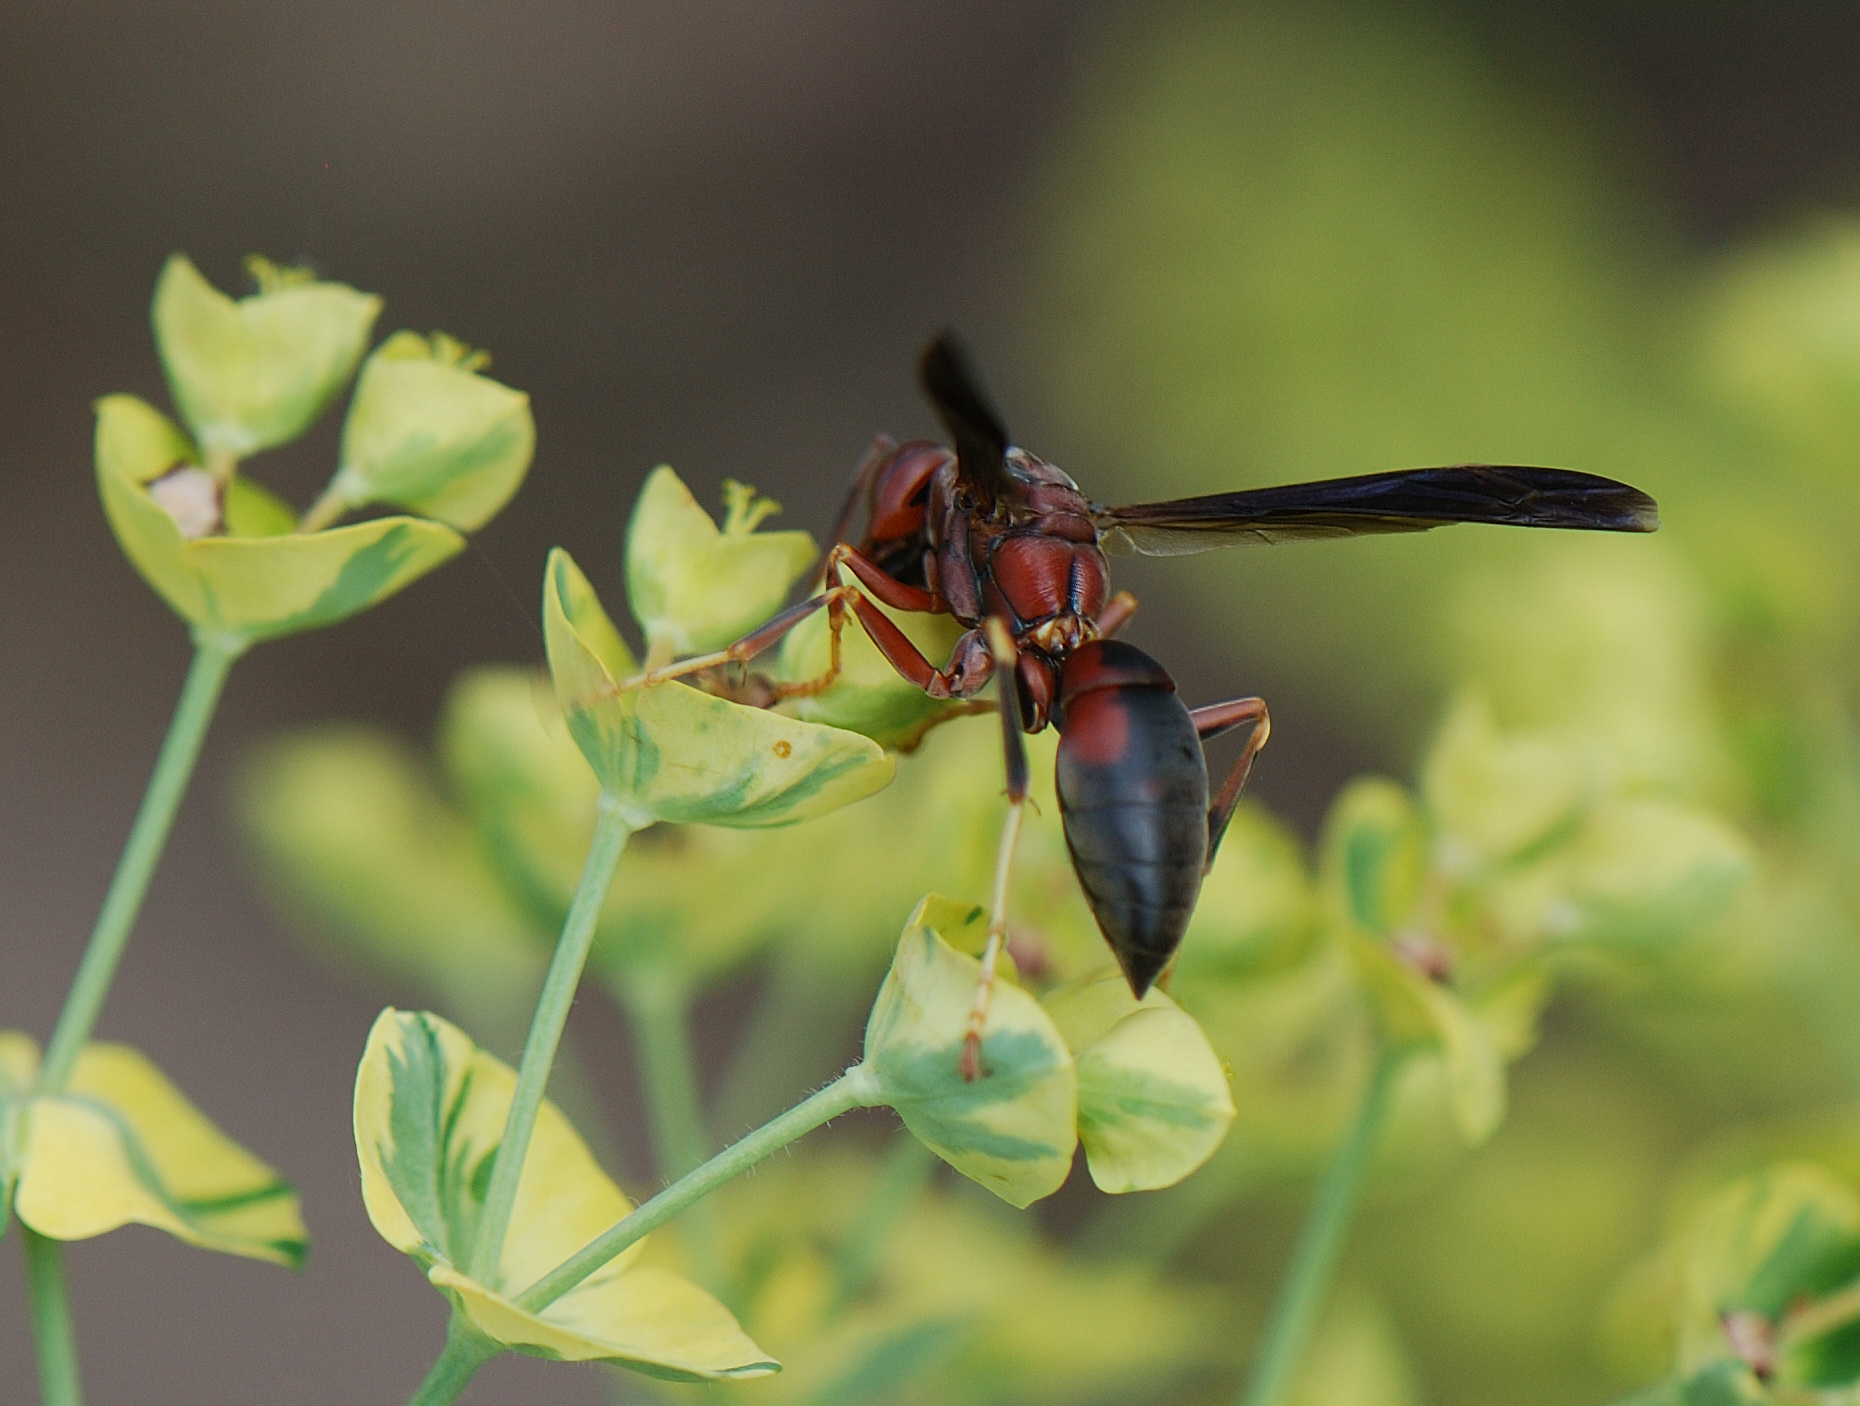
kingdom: Animalia
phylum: Arthropoda
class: Insecta
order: Hymenoptera
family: Eumenidae
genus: Polistes
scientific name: Polistes metricus
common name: Metric paper wasp
